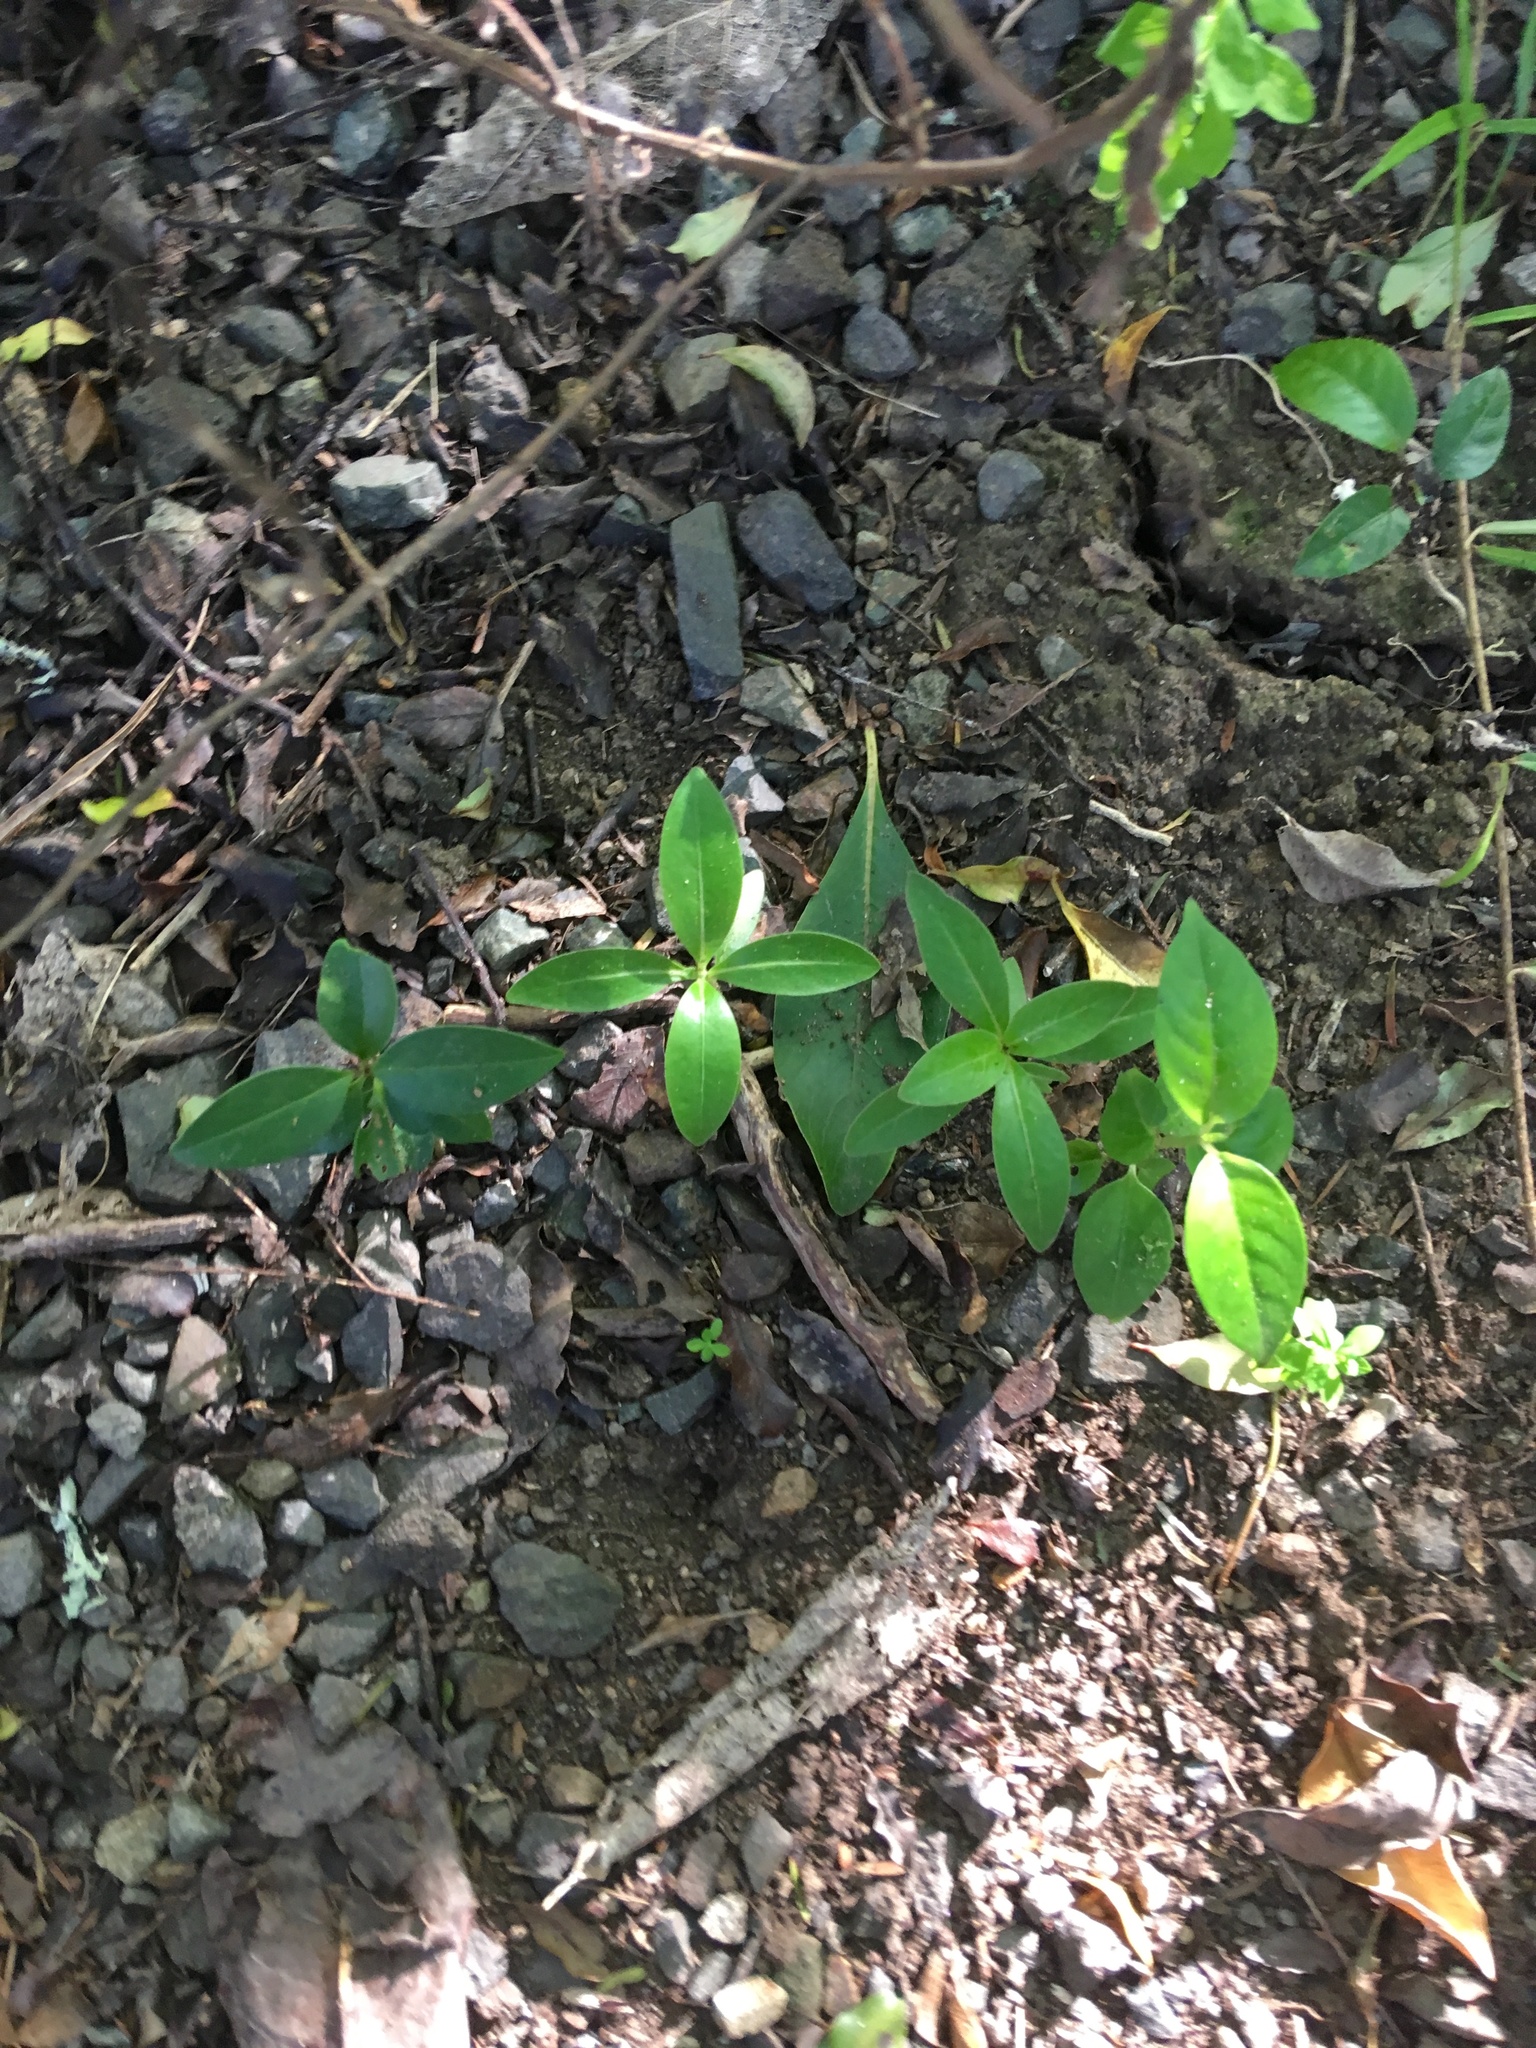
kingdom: Plantae
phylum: Tracheophyta
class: Magnoliopsida
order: Gentianales
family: Rubiaceae
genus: Coprosma
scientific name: Coprosma robusta
